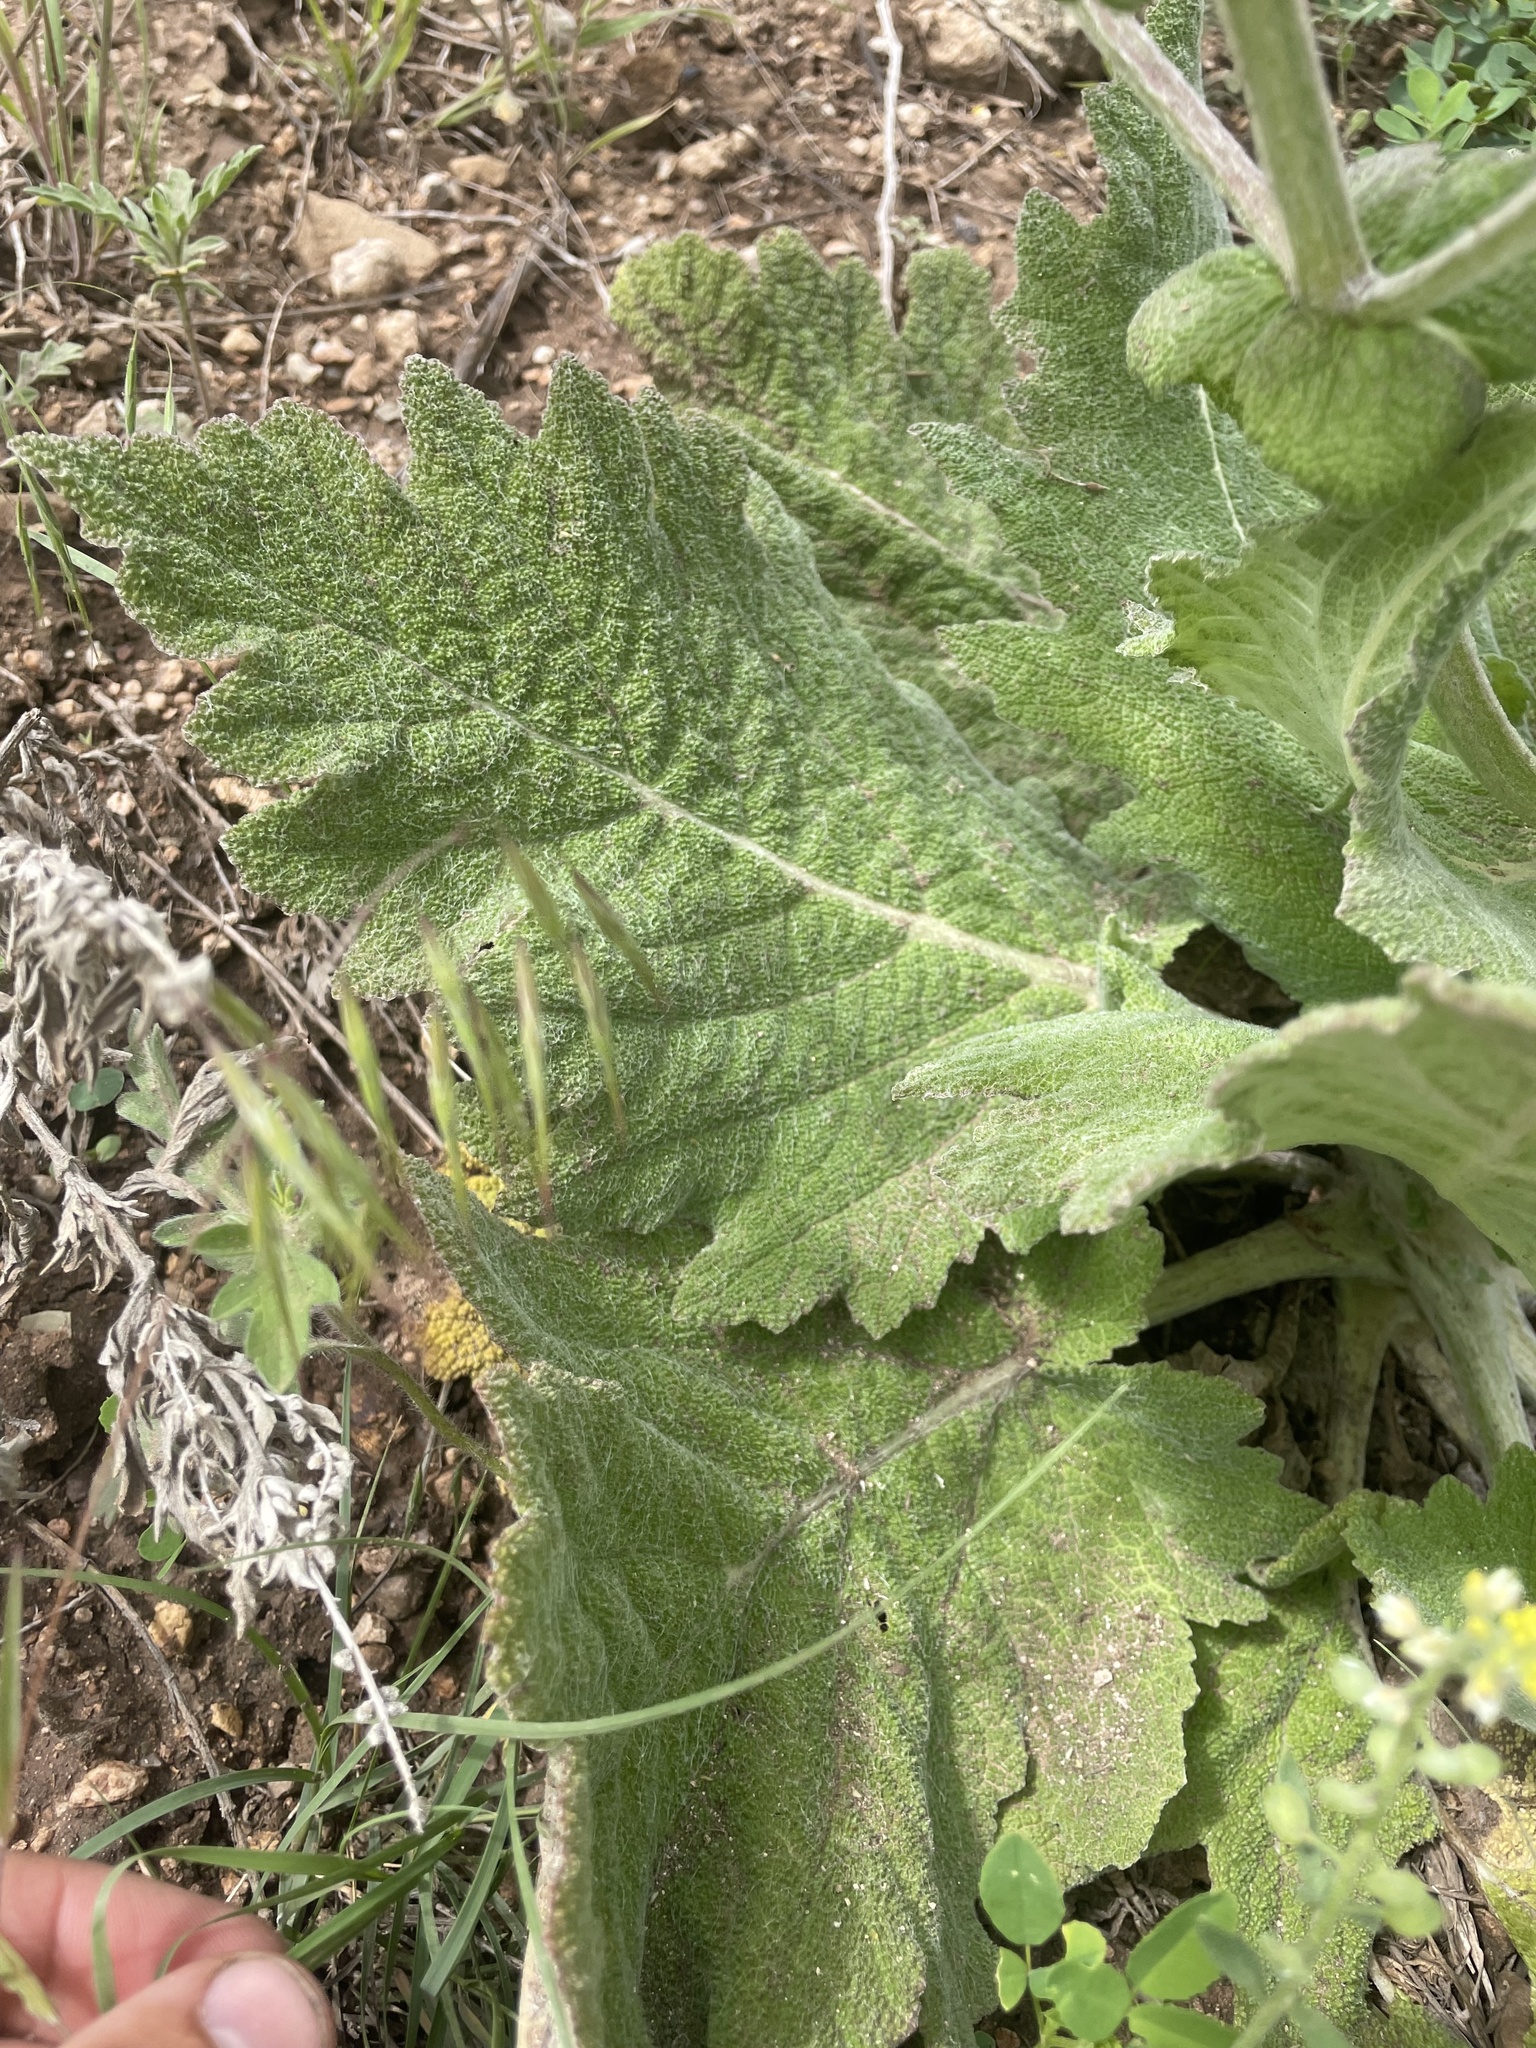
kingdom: Plantae
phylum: Tracheophyta
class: Magnoliopsida
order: Lamiales
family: Lamiaceae
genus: Salvia
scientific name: Salvia aethiopis
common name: Mediterranean sage
